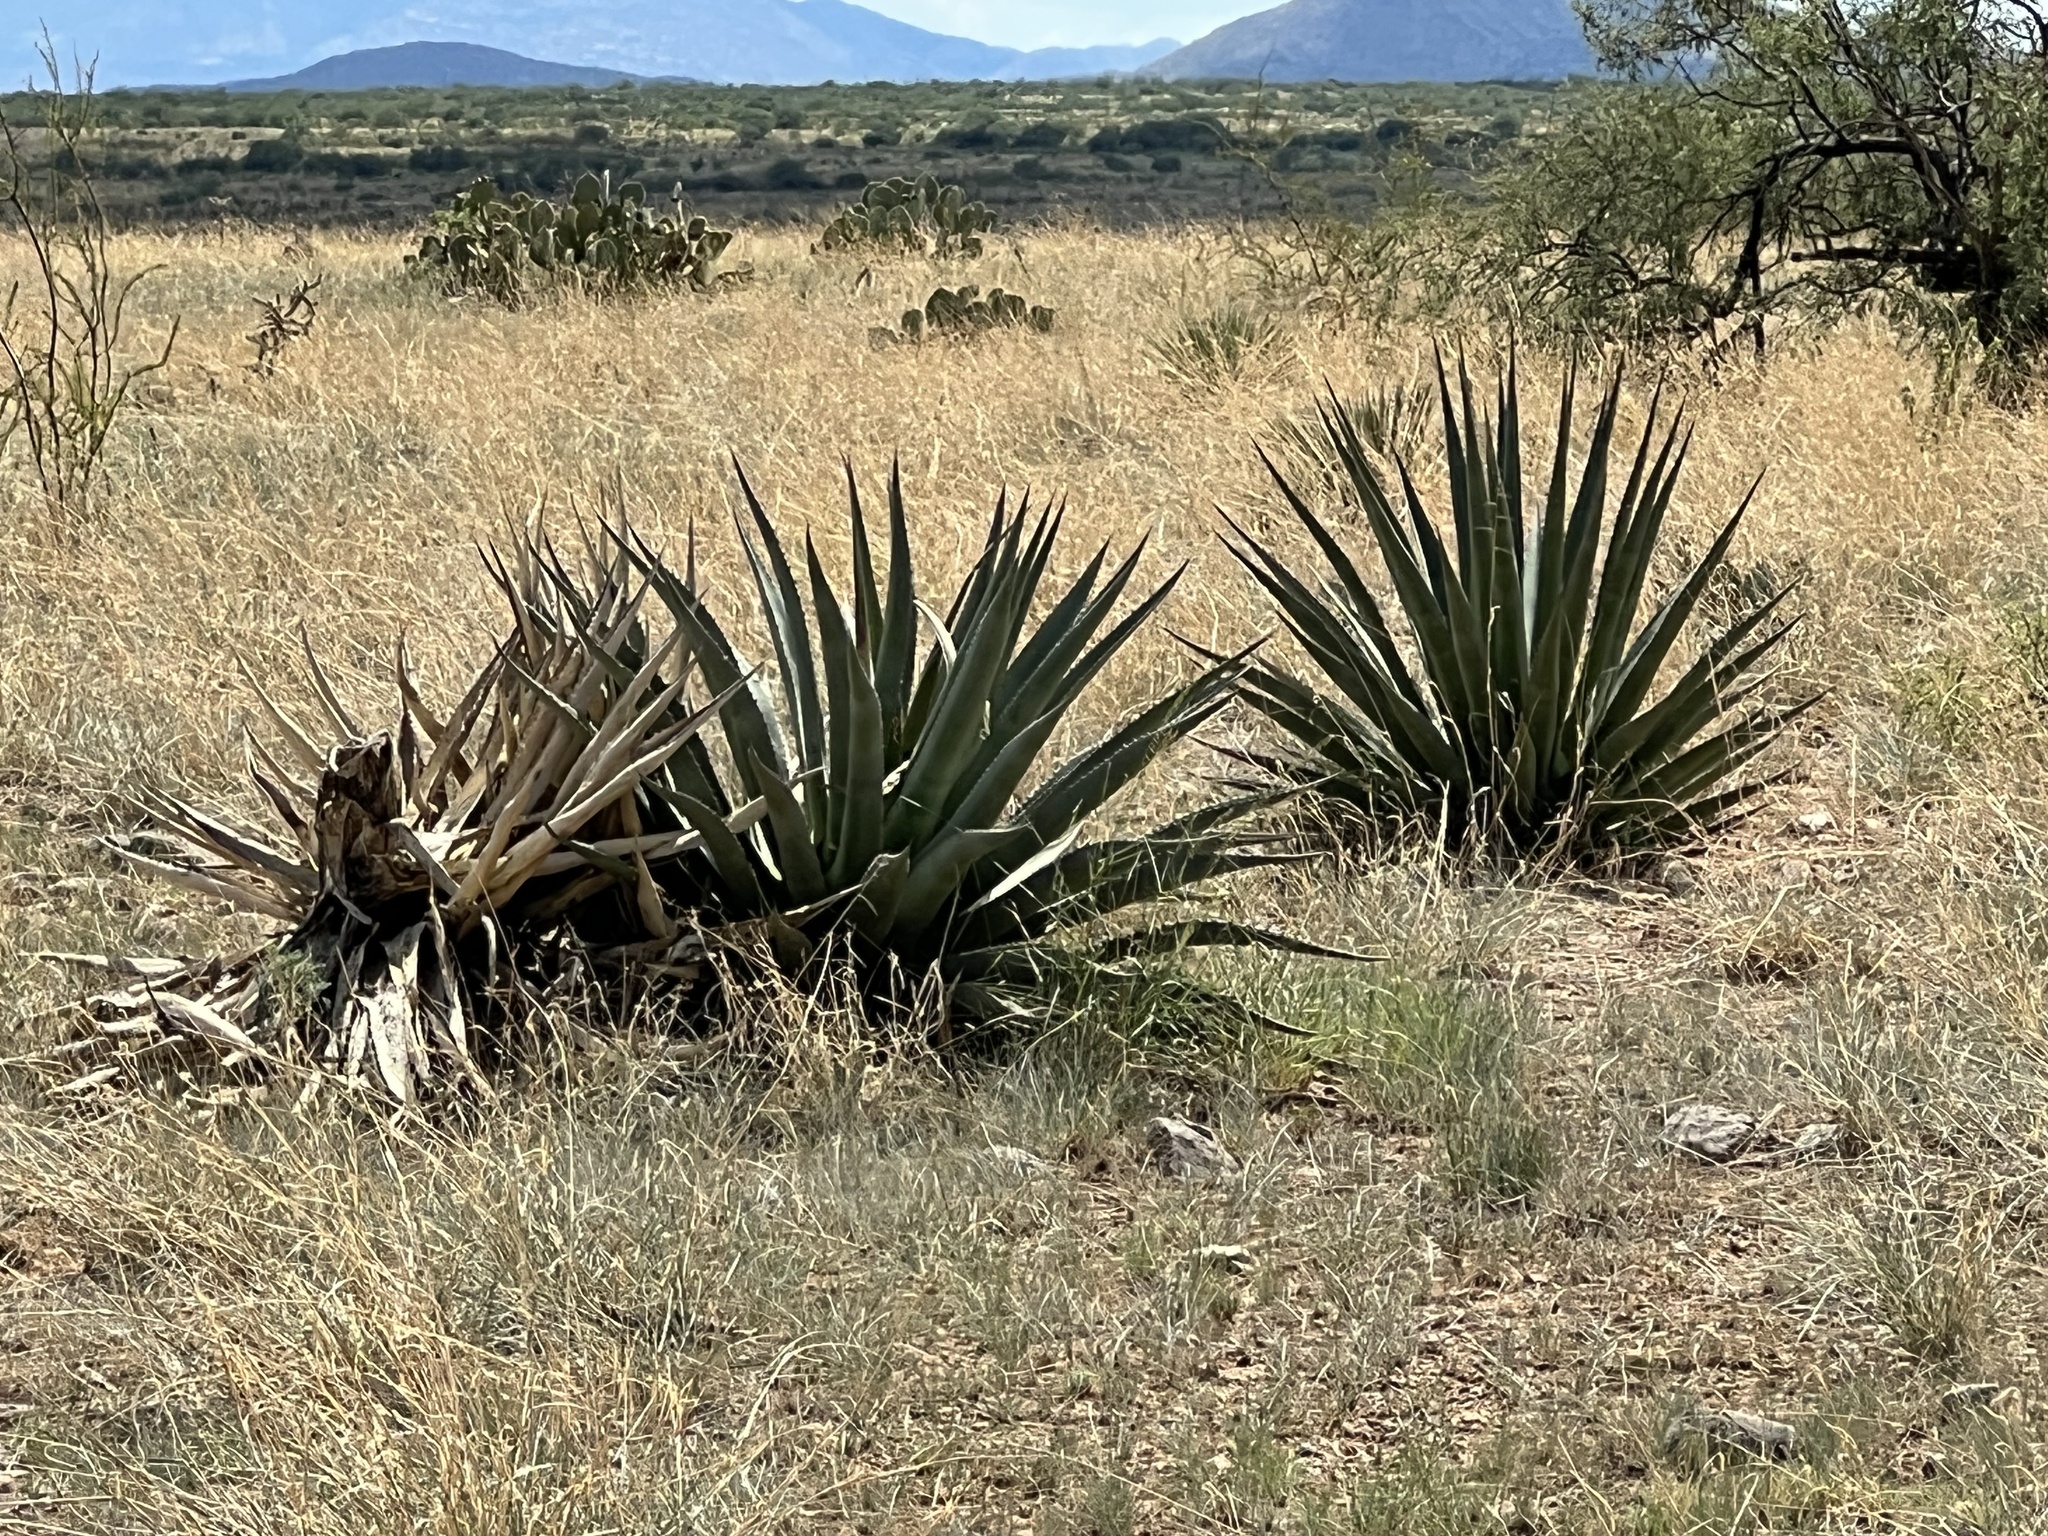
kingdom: Plantae
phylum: Tracheophyta
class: Liliopsida
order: Asparagales
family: Asparagaceae
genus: Agave
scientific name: Agave palmeri
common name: Palmer agave
